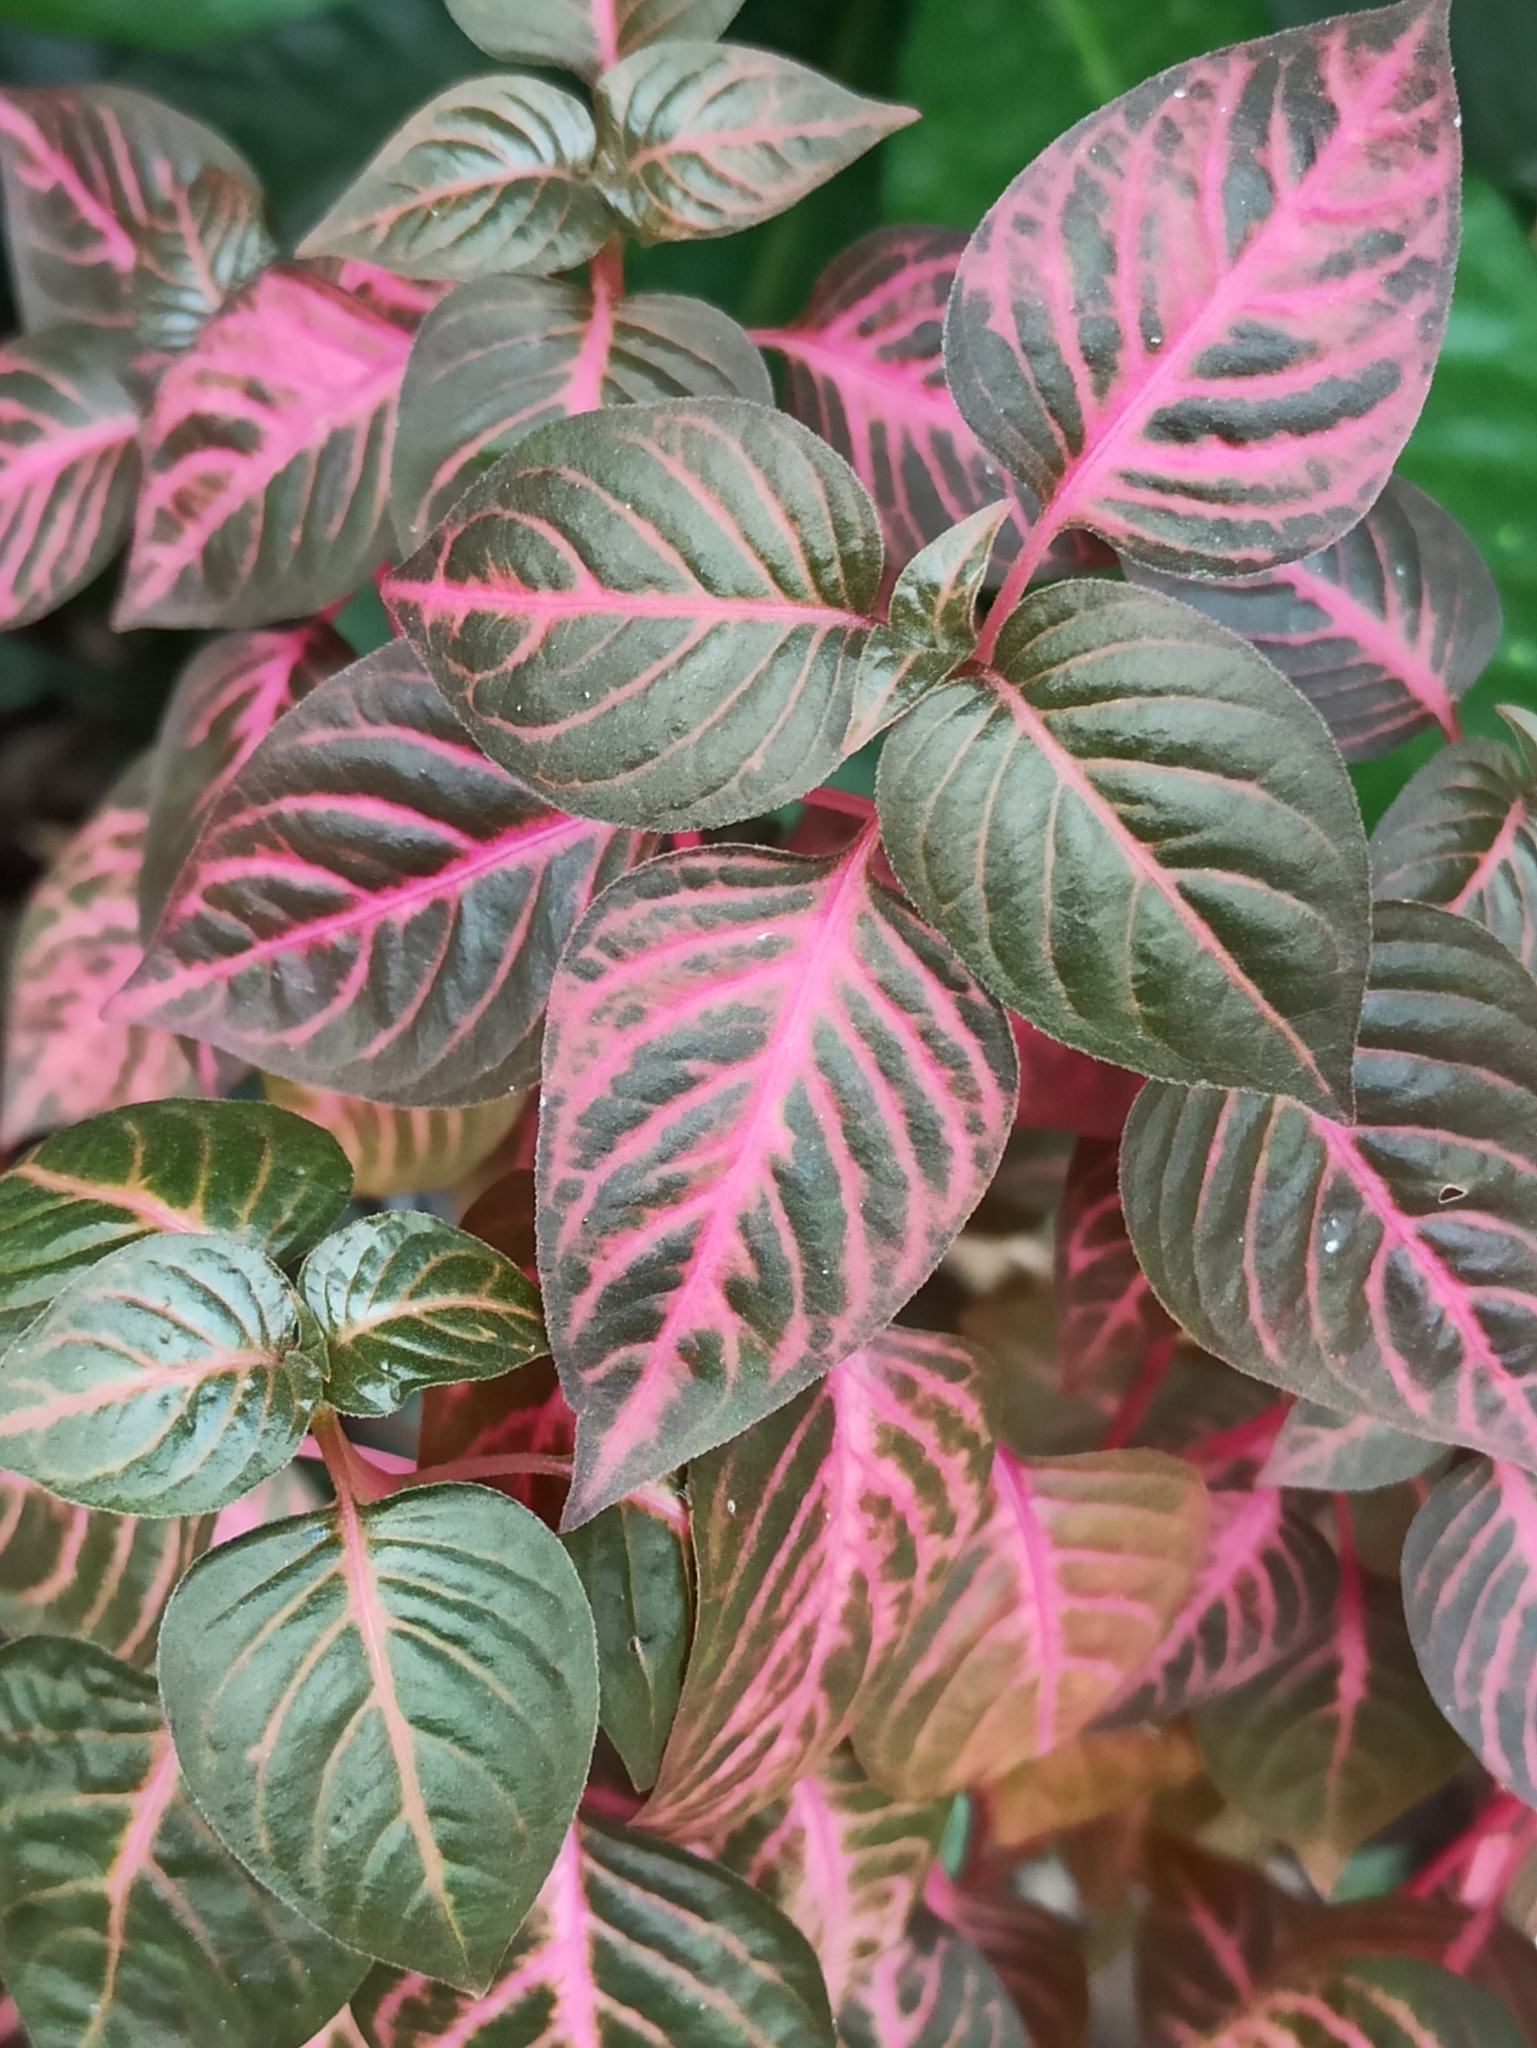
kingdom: Plantae
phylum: Tracheophyta
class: Magnoliopsida
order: Caryophyllales
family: Amaranthaceae
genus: Iresine
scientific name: Iresine diffusa
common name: Juba's-bush
